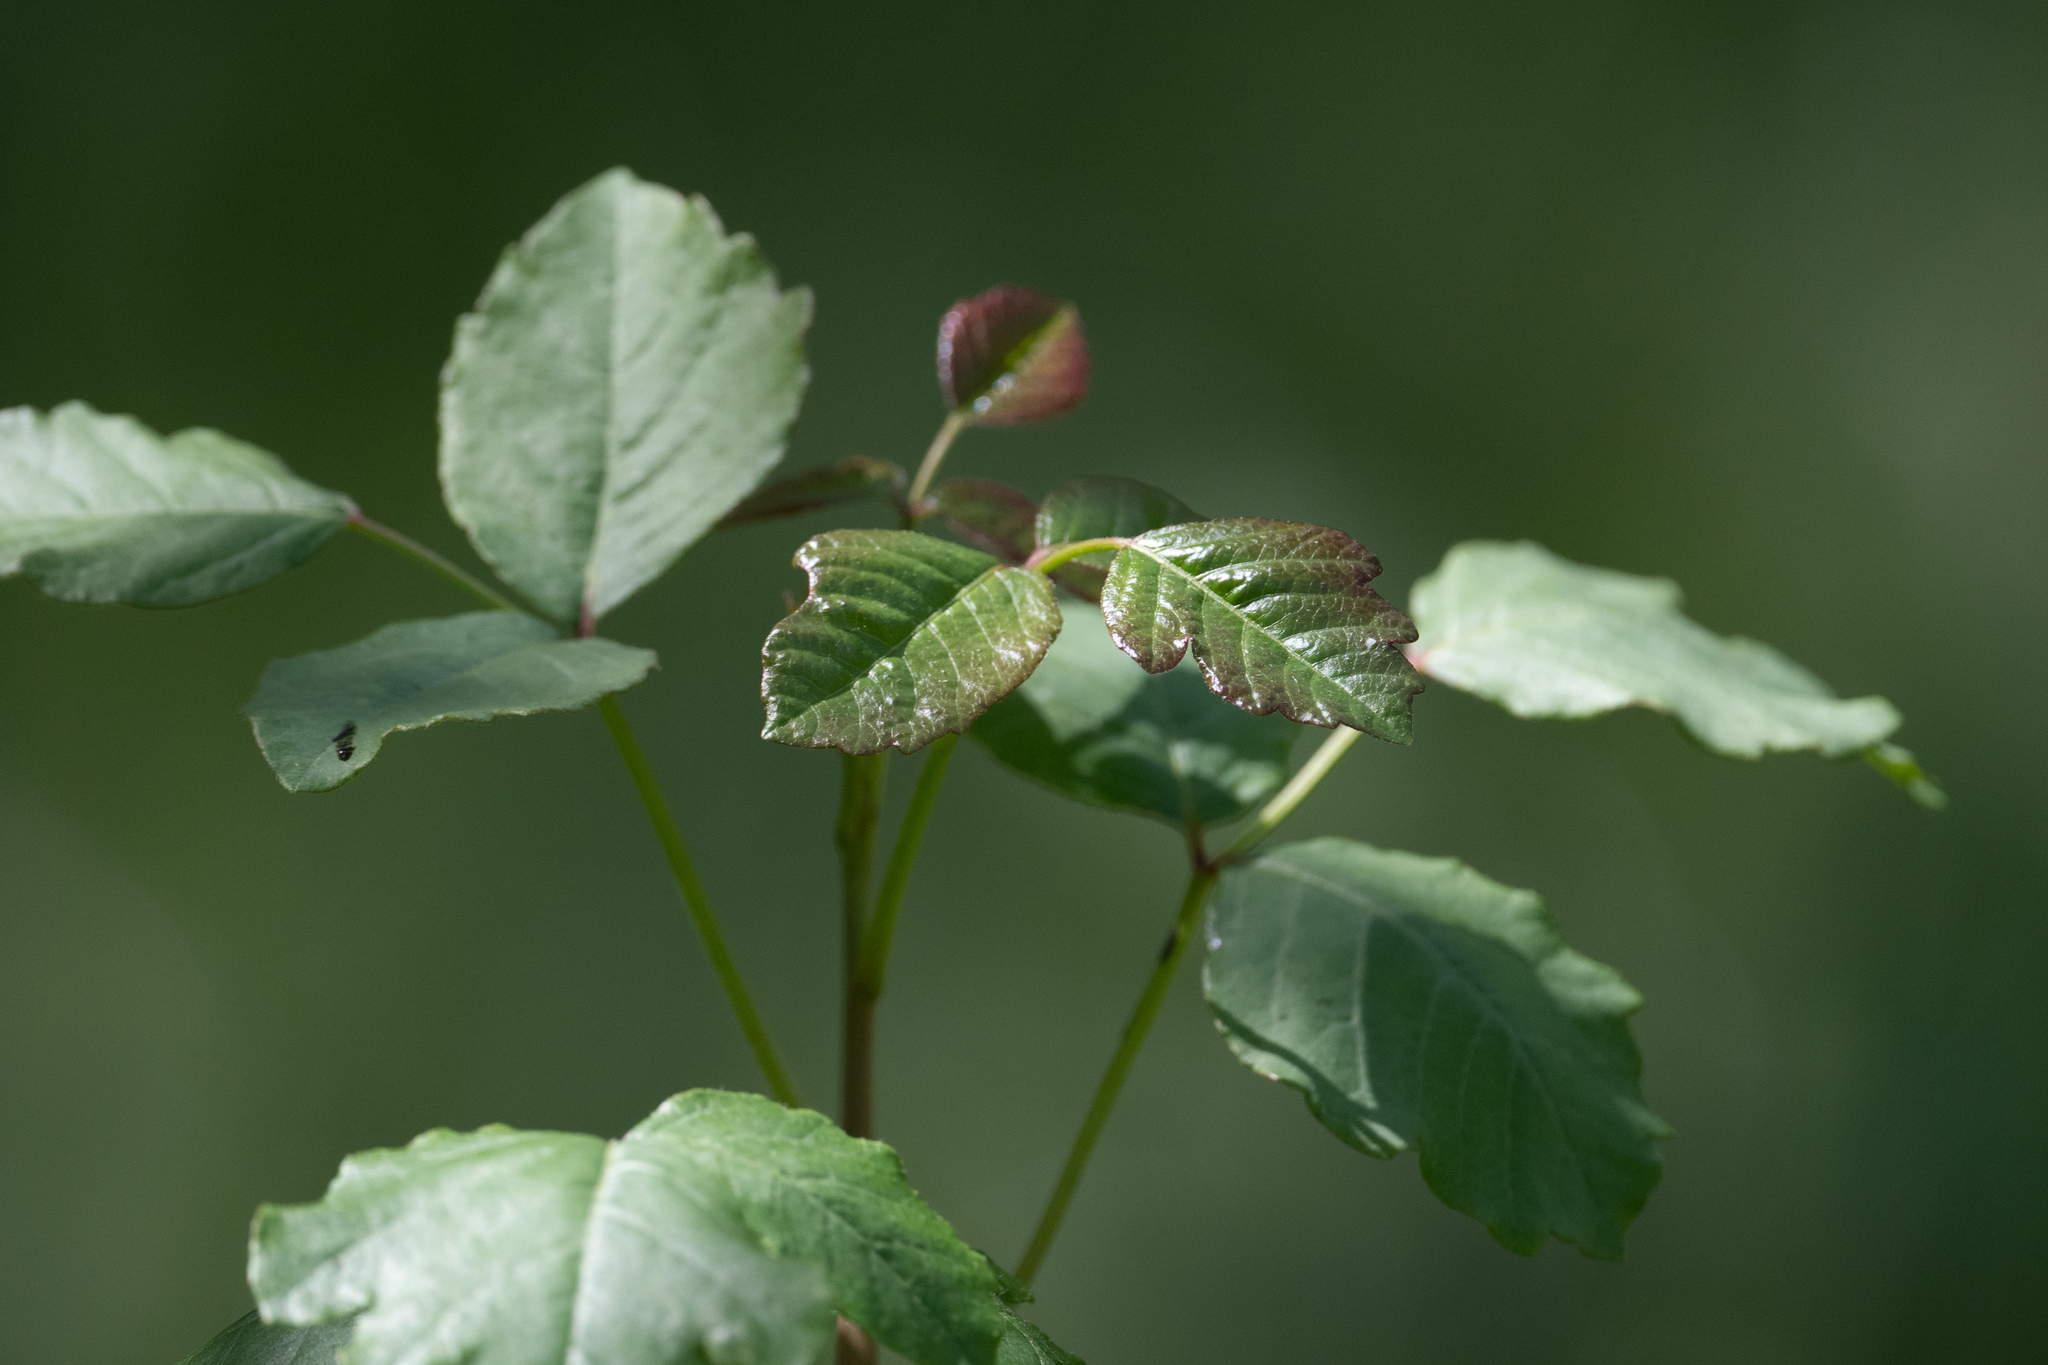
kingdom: Plantae
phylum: Tracheophyta
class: Magnoliopsida
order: Sapindales
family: Anacardiaceae
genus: Toxicodendron
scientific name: Toxicodendron diversilobum
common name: Pacific poison-oak
